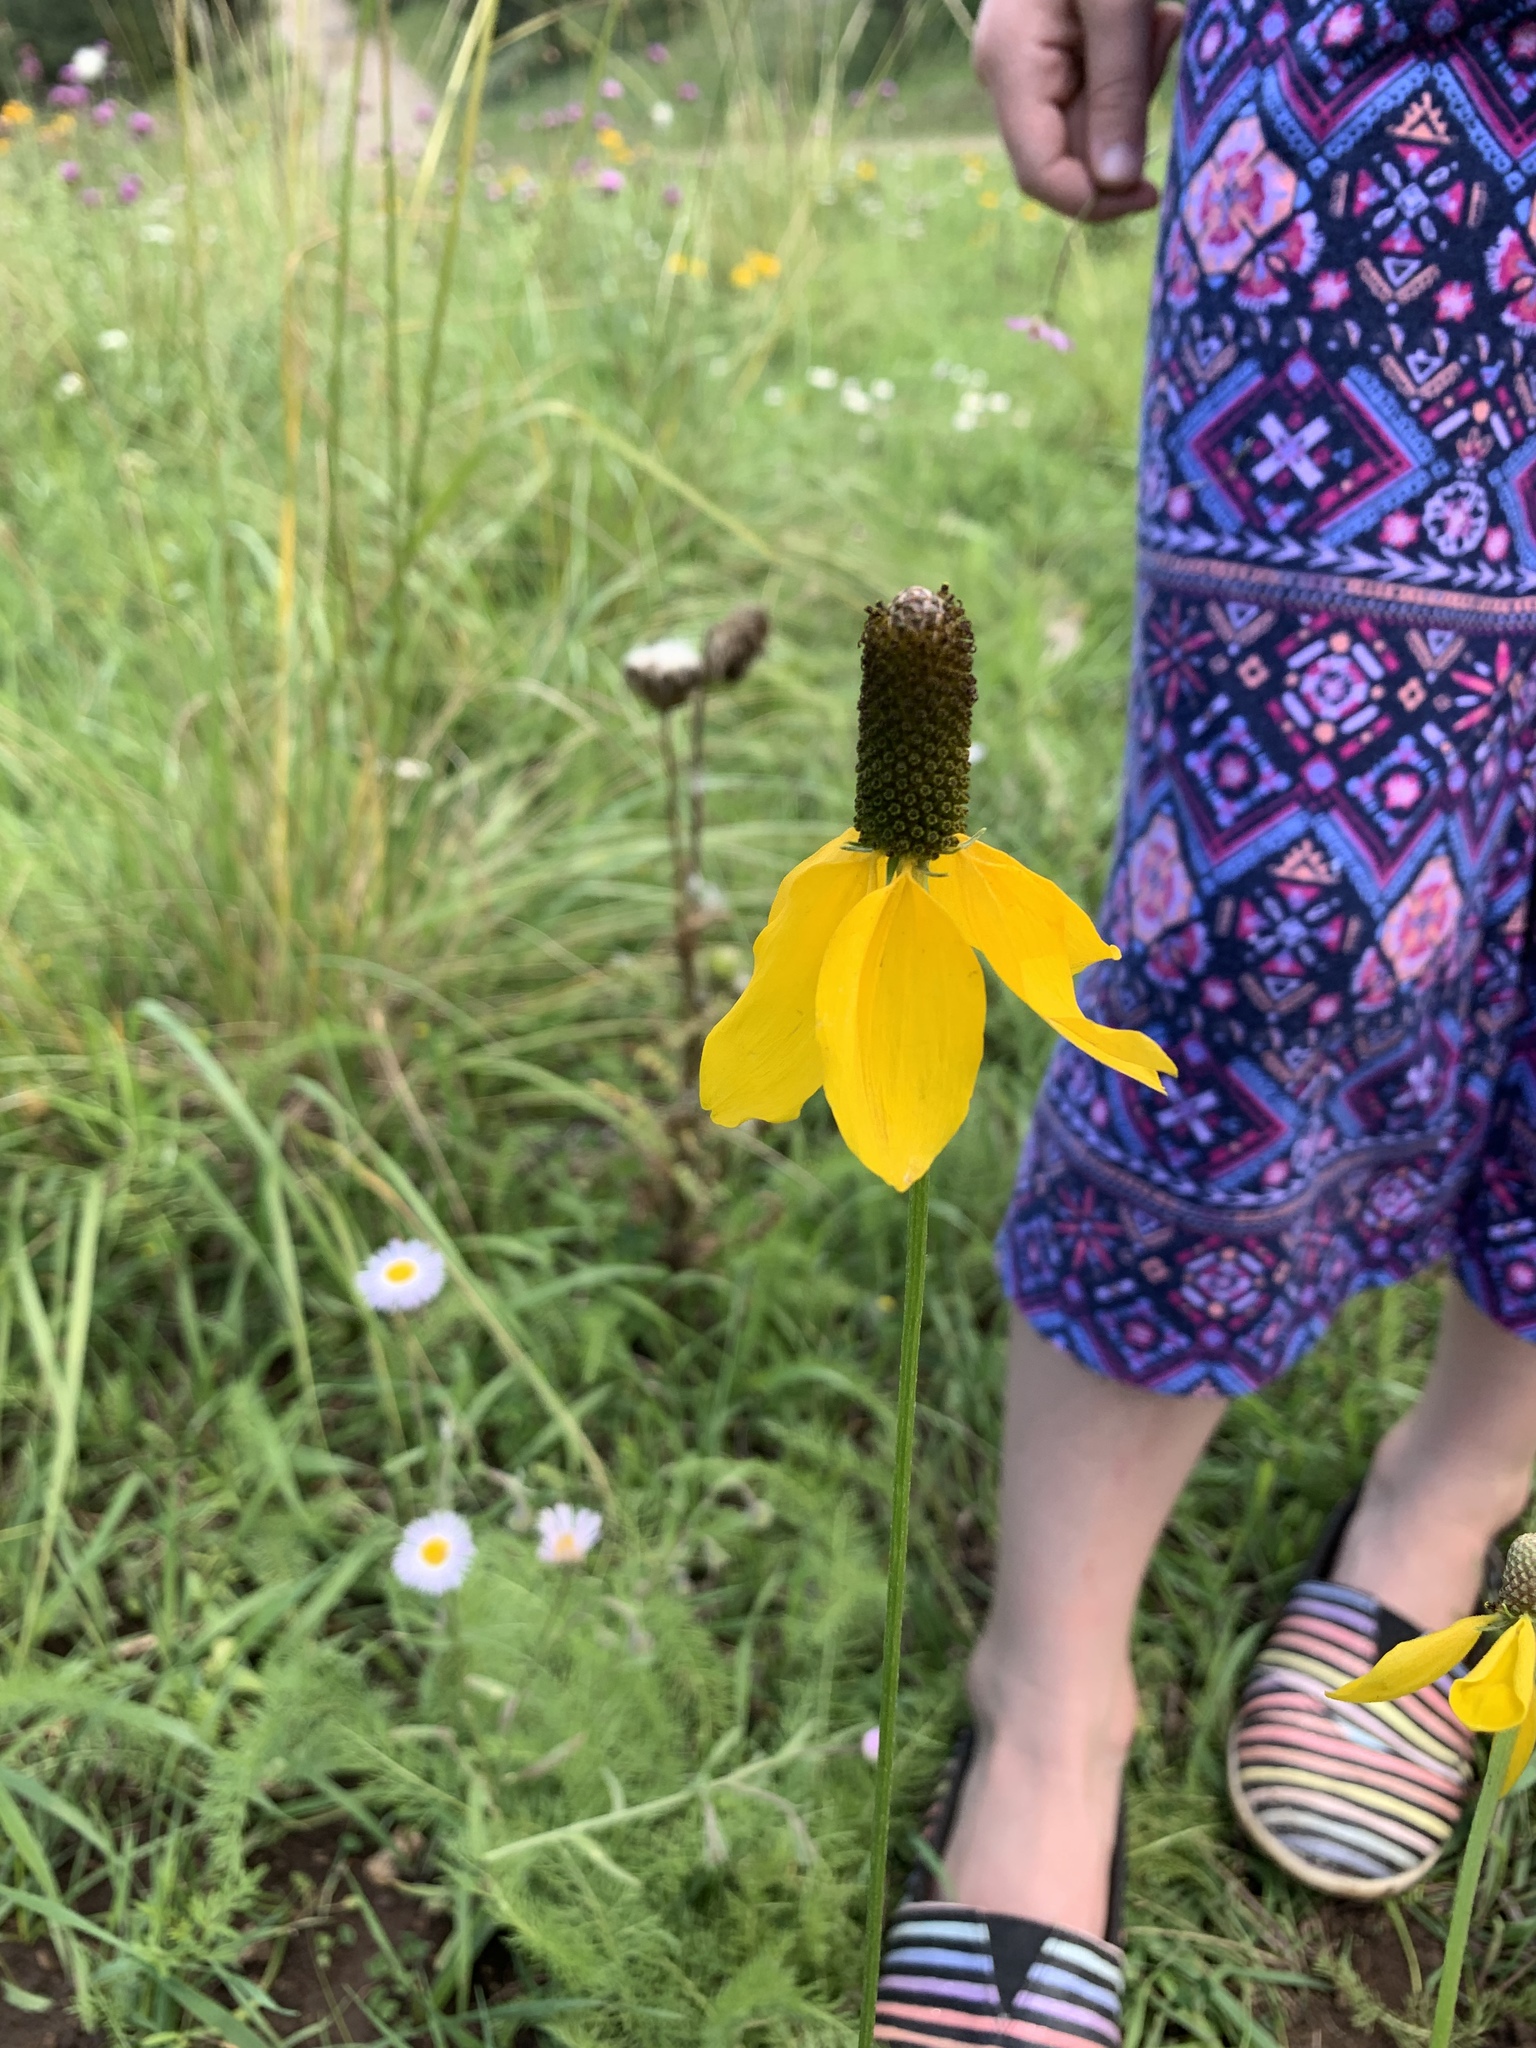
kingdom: Plantae
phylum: Tracheophyta
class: Magnoliopsida
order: Asterales
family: Asteraceae
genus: Ratibida
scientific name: Ratibida columnifera
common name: Prairie coneflower
